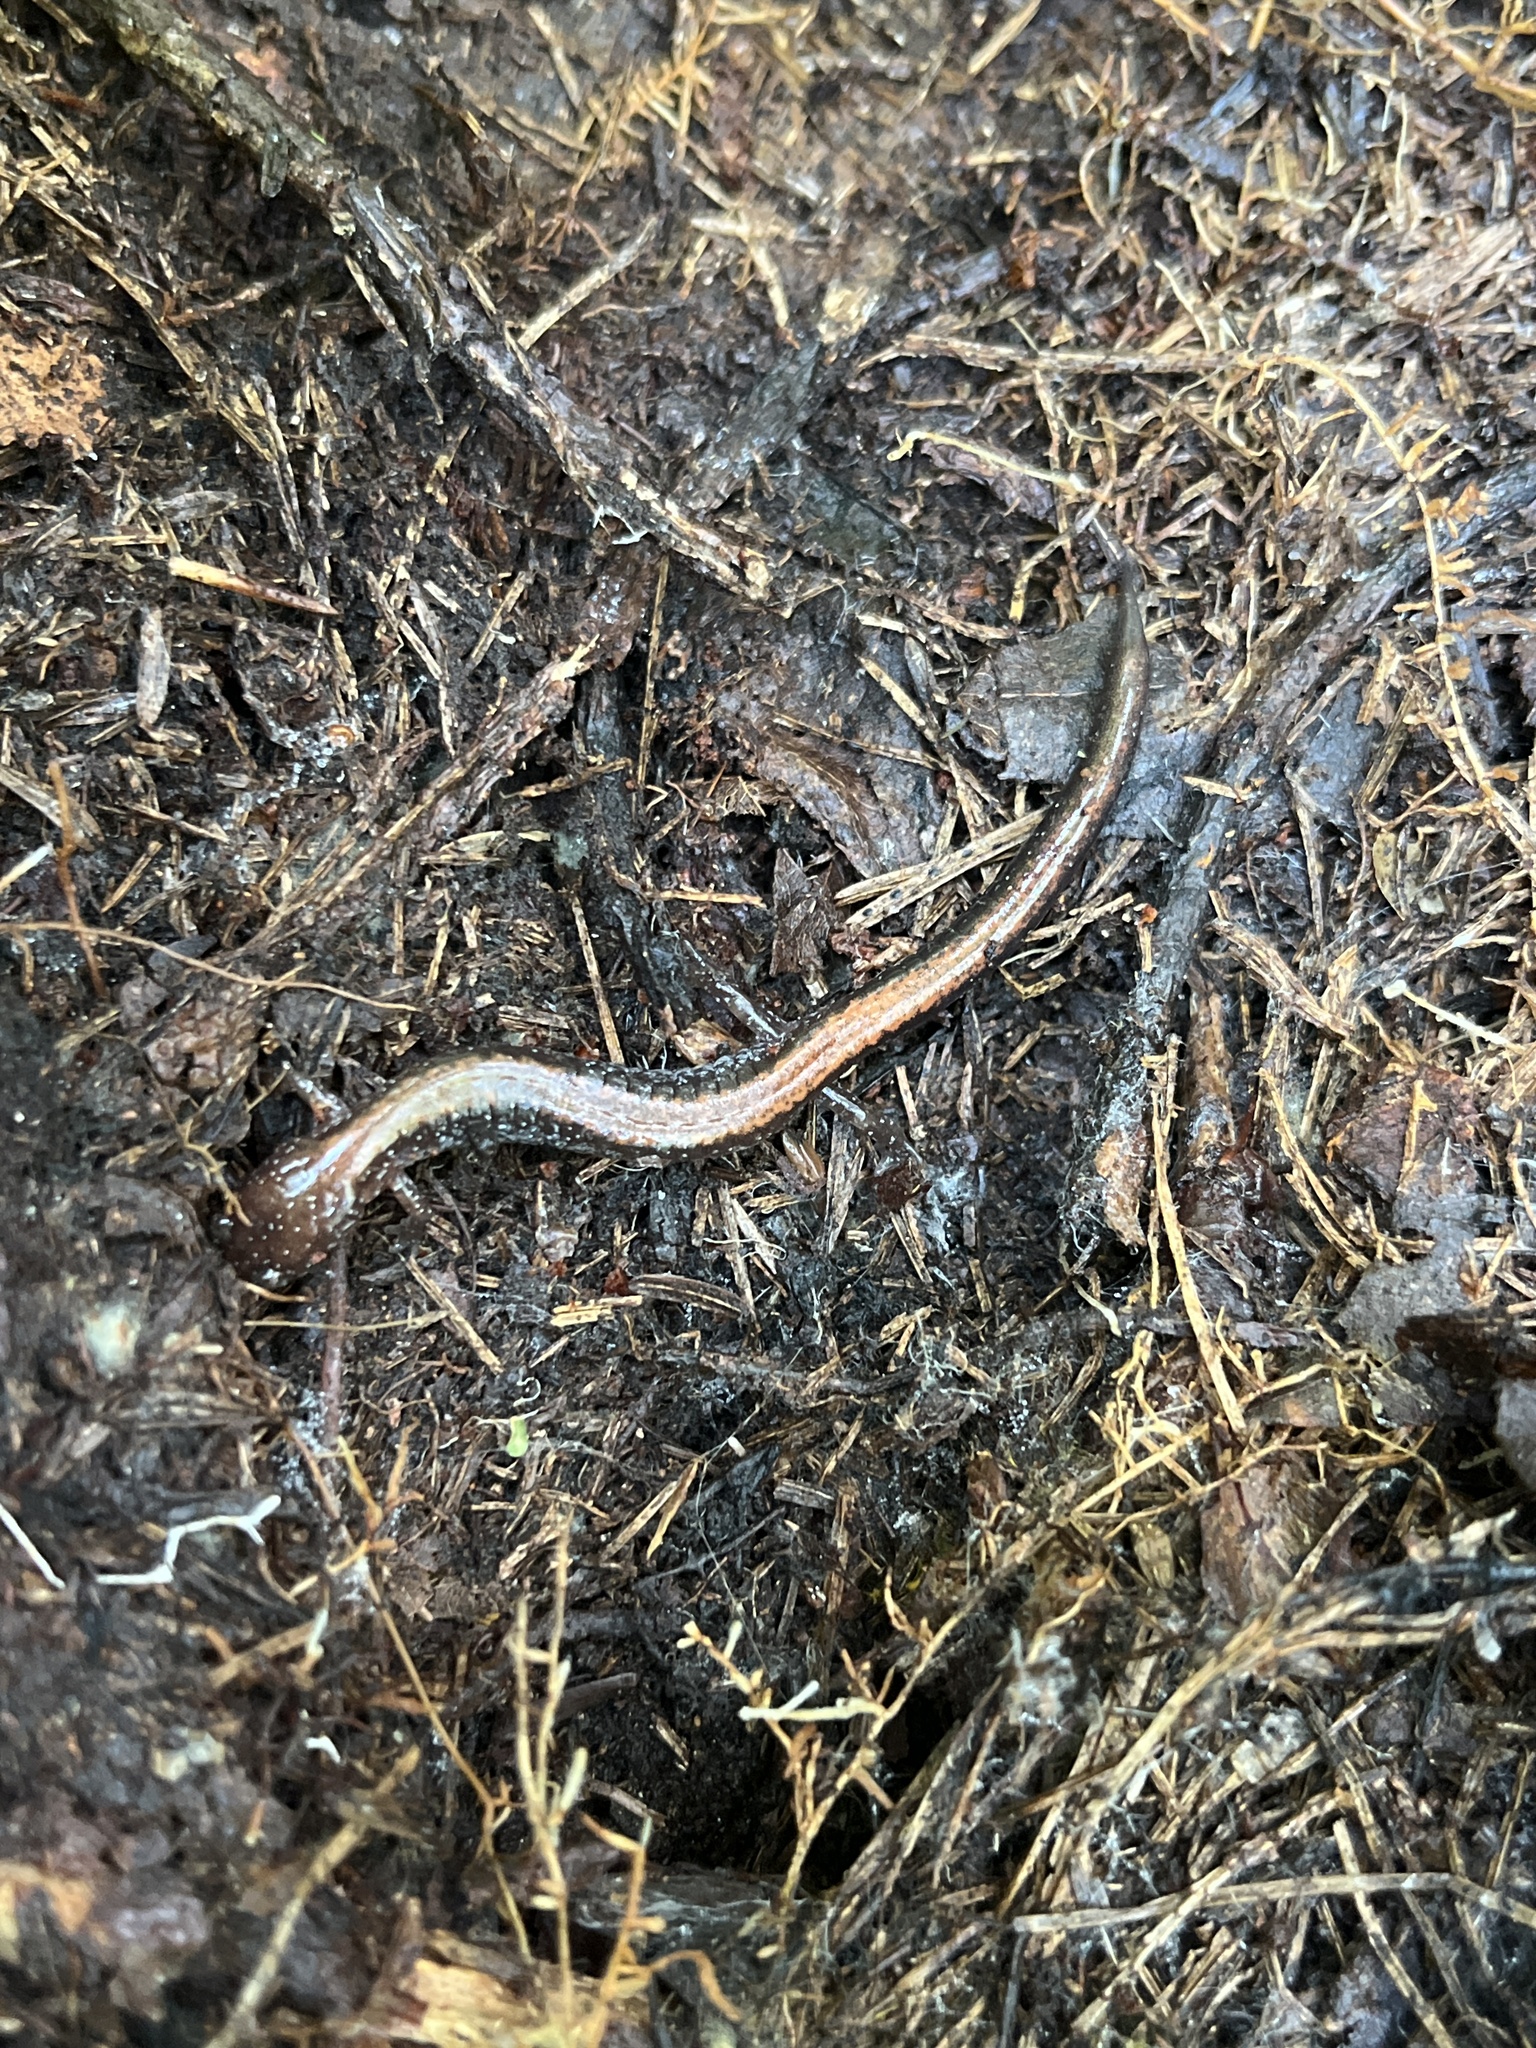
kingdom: Animalia
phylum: Chordata
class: Amphibia
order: Caudata
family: Plethodontidae
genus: Plethodon
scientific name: Plethodon cinereus
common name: Redback salamander
